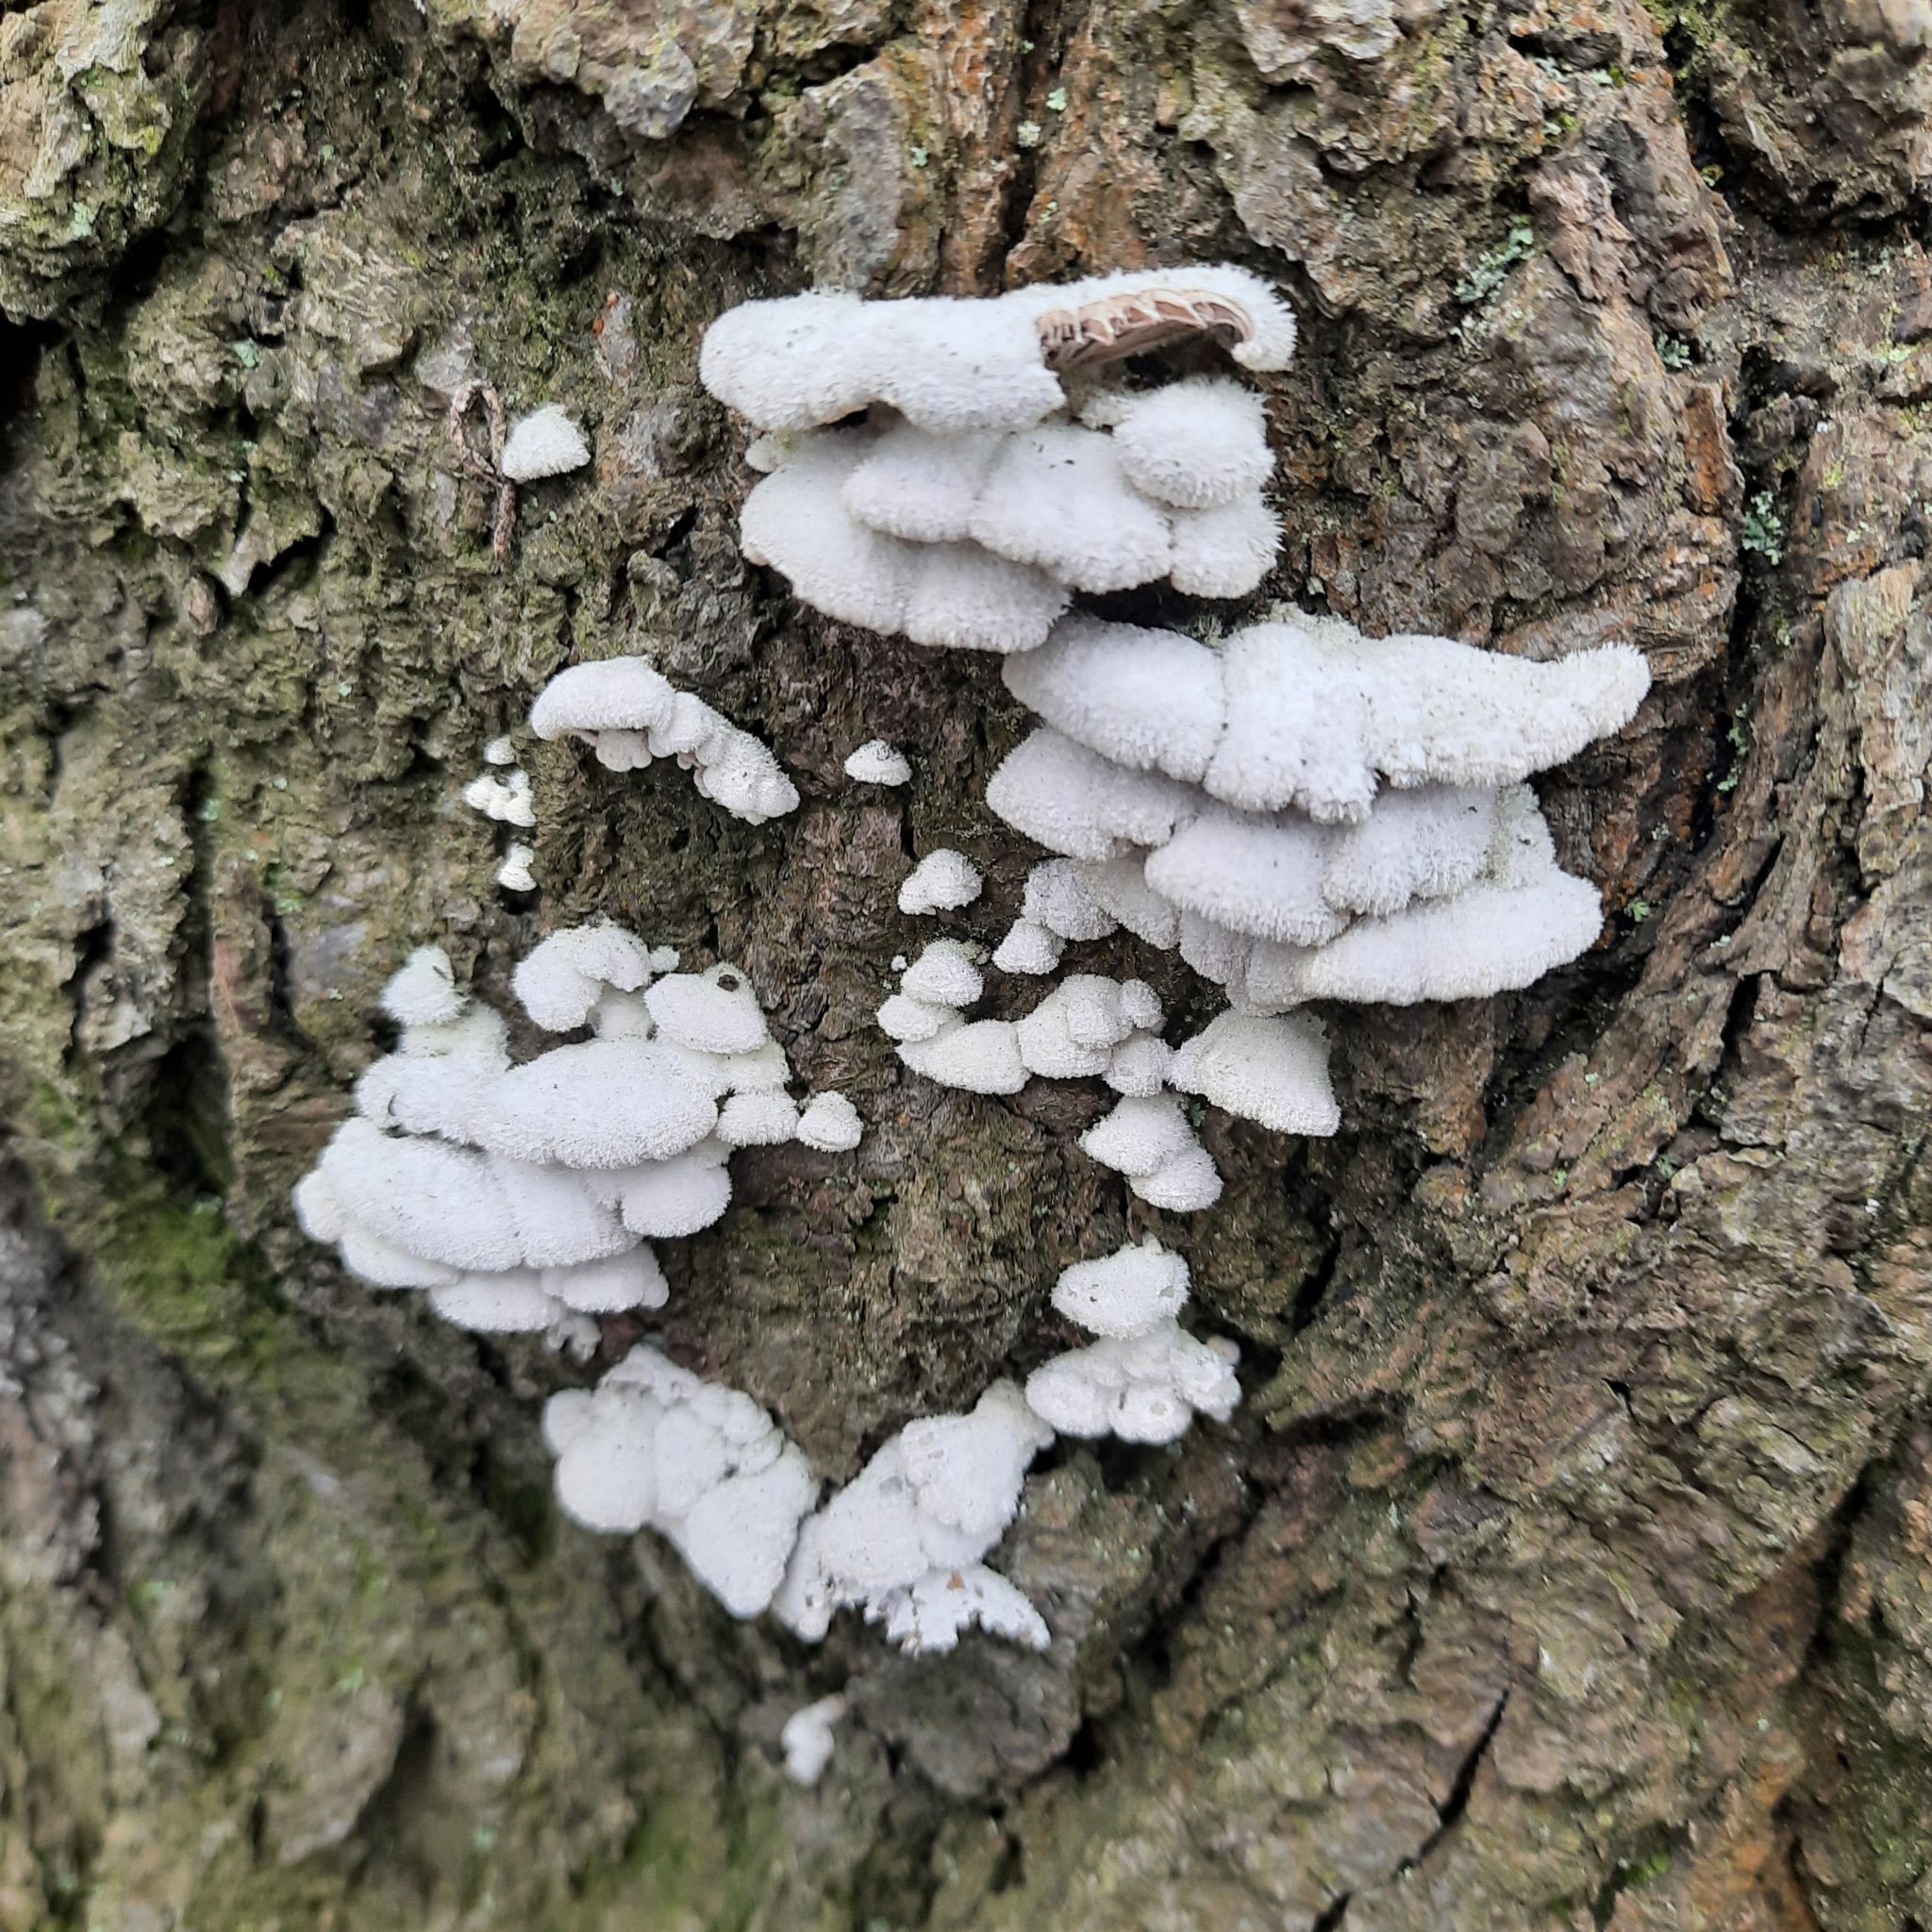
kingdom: Fungi
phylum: Basidiomycota
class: Agaricomycetes
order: Agaricales
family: Schizophyllaceae
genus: Schizophyllum
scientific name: Schizophyllum commune
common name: Common porecrust
